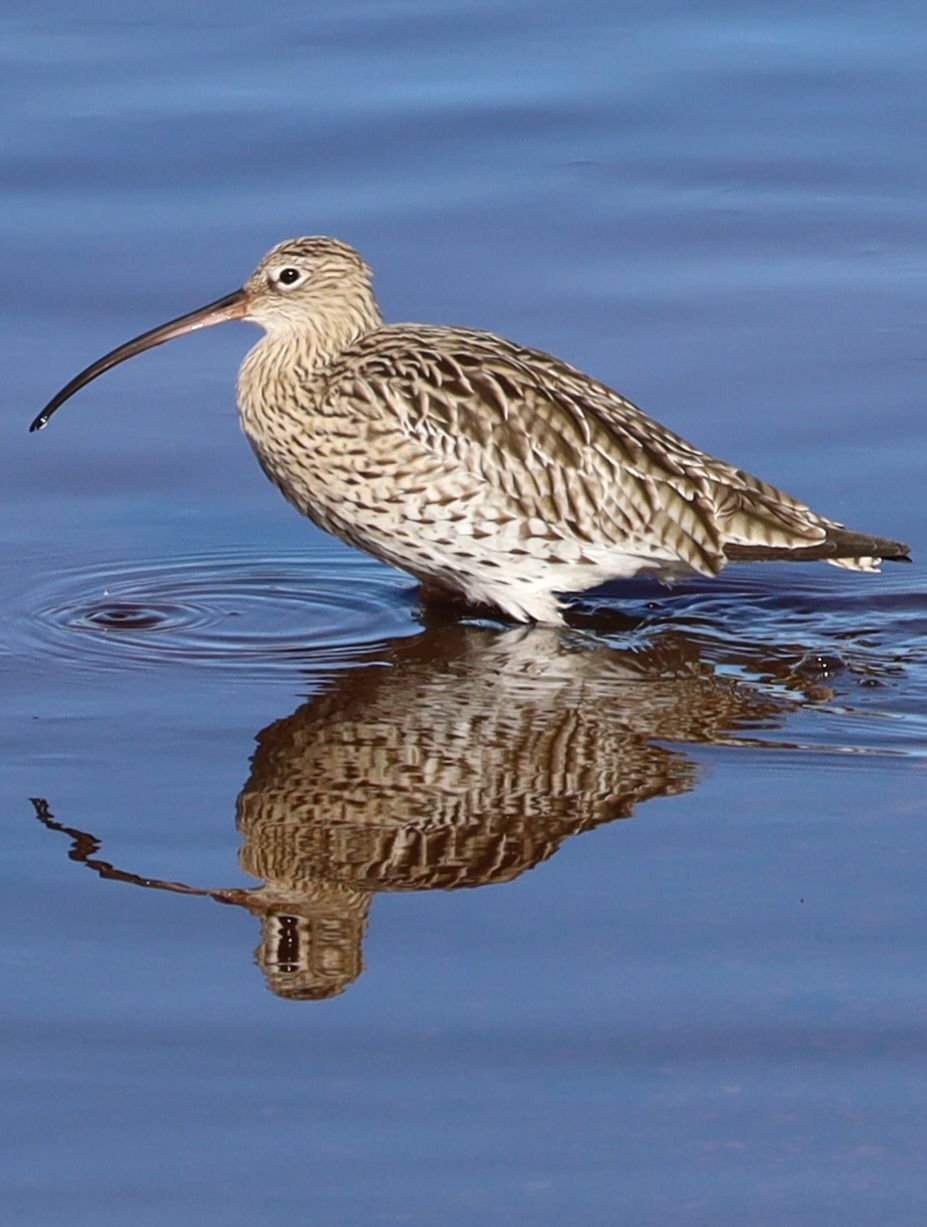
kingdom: Animalia
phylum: Chordata
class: Aves
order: Charadriiformes
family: Scolopacidae
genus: Numenius
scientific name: Numenius arquata
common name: Eurasian curlew
